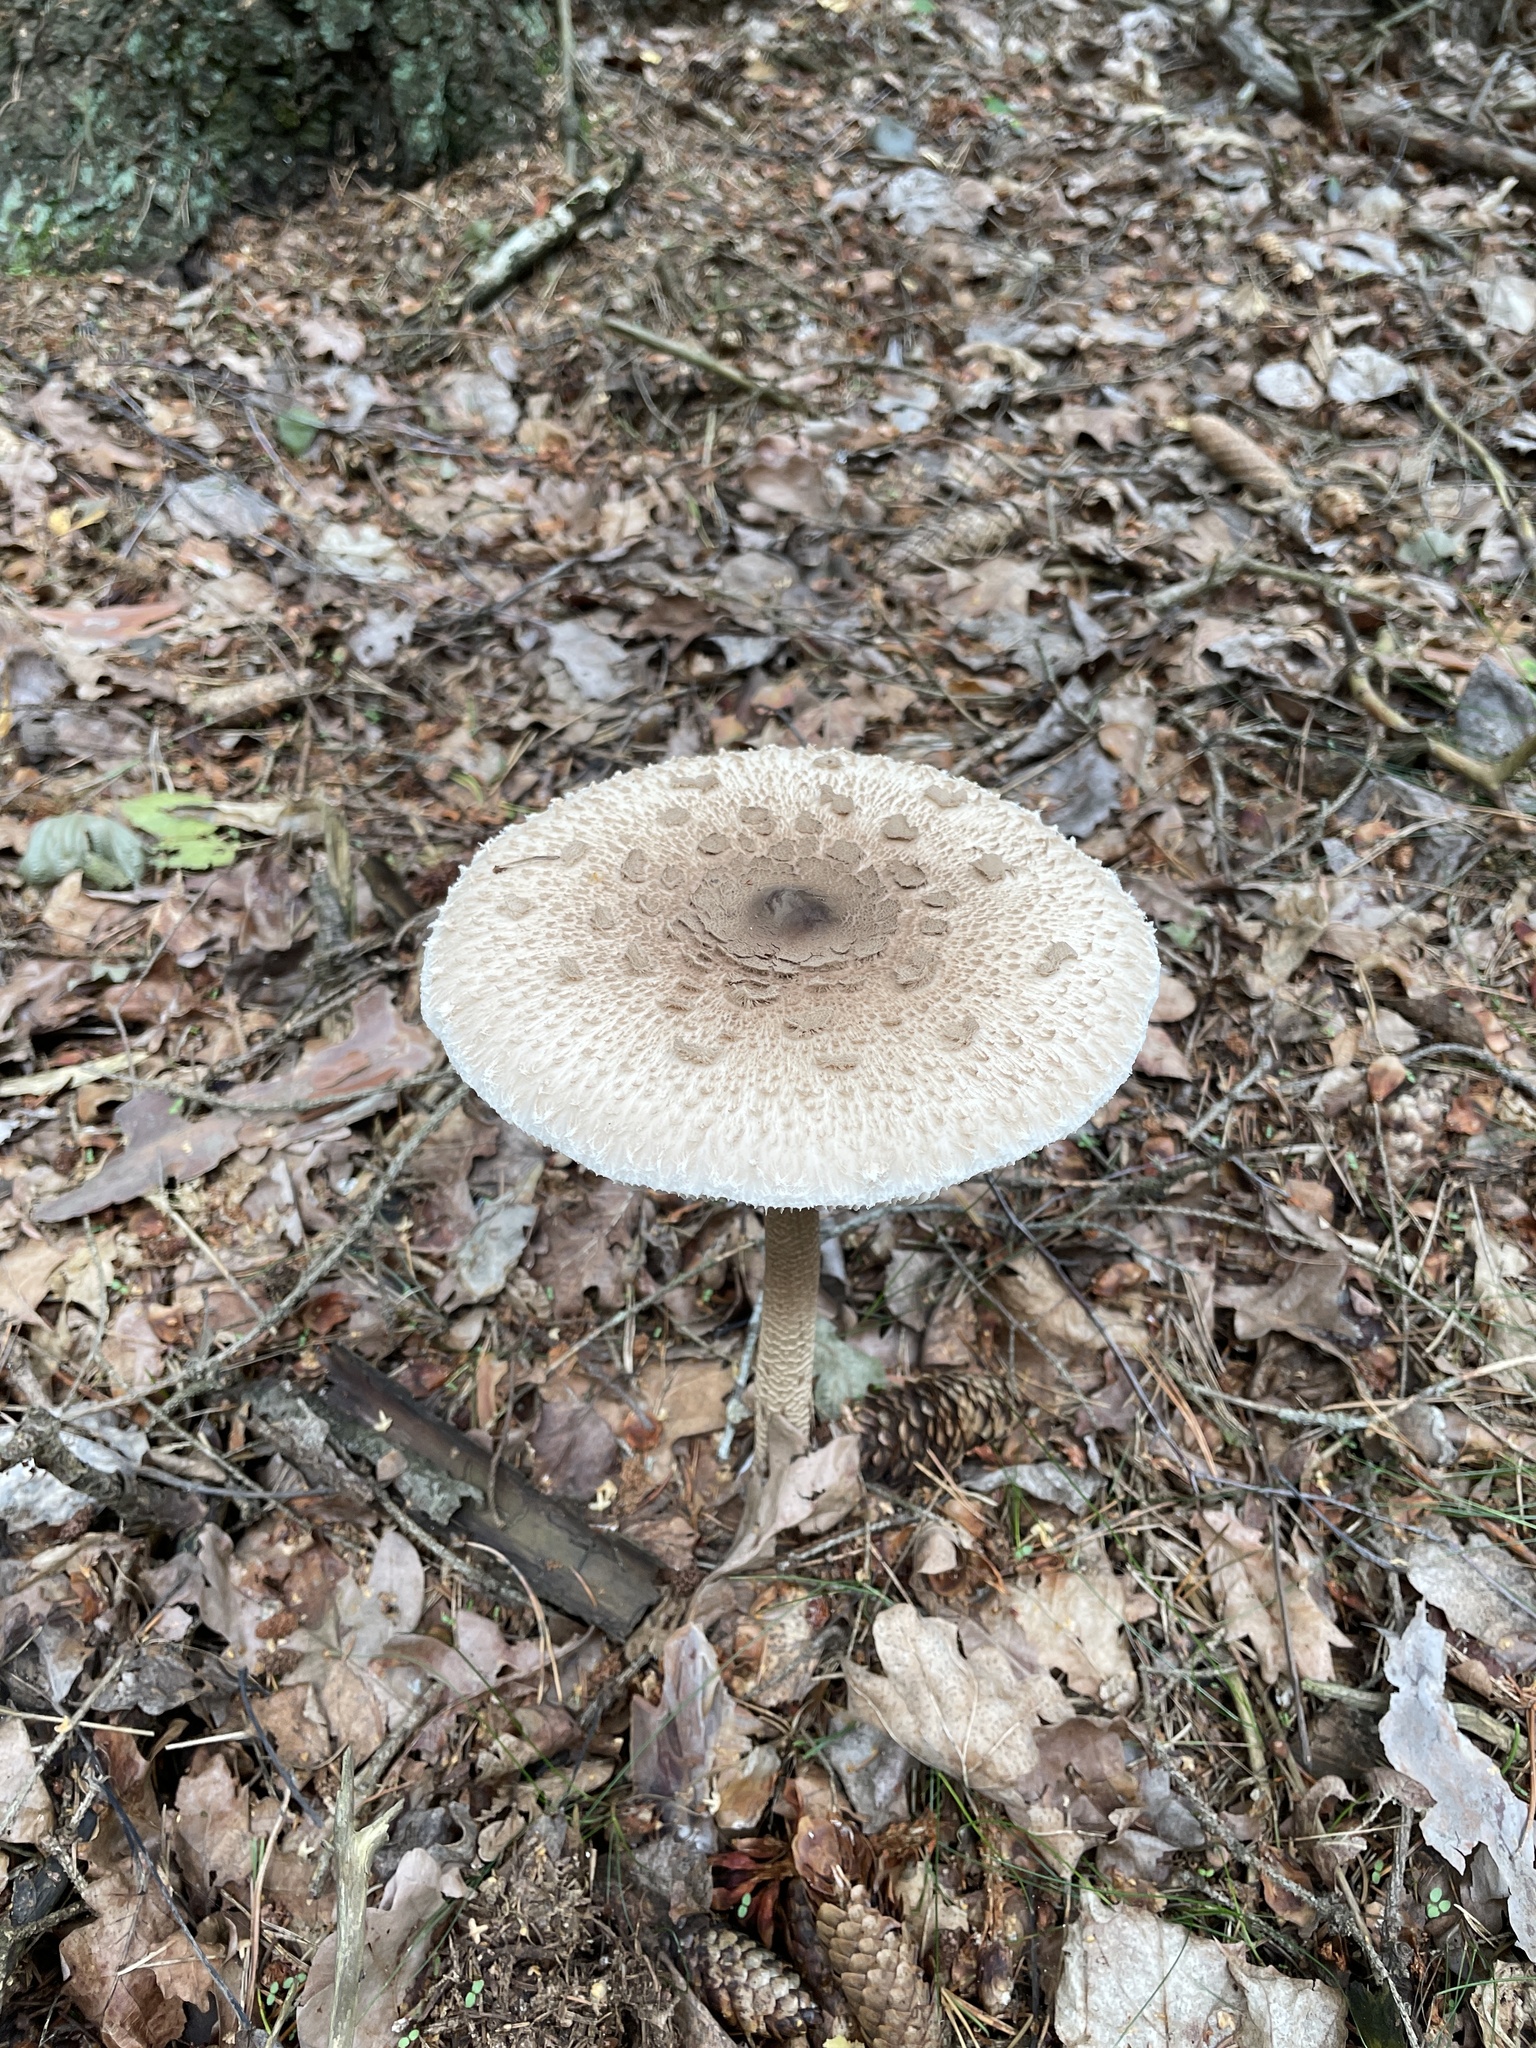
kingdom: Fungi
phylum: Basidiomycota
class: Agaricomycetes
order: Agaricales
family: Agaricaceae
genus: Macrolepiota
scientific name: Macrolepiota procera
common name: Parasol
